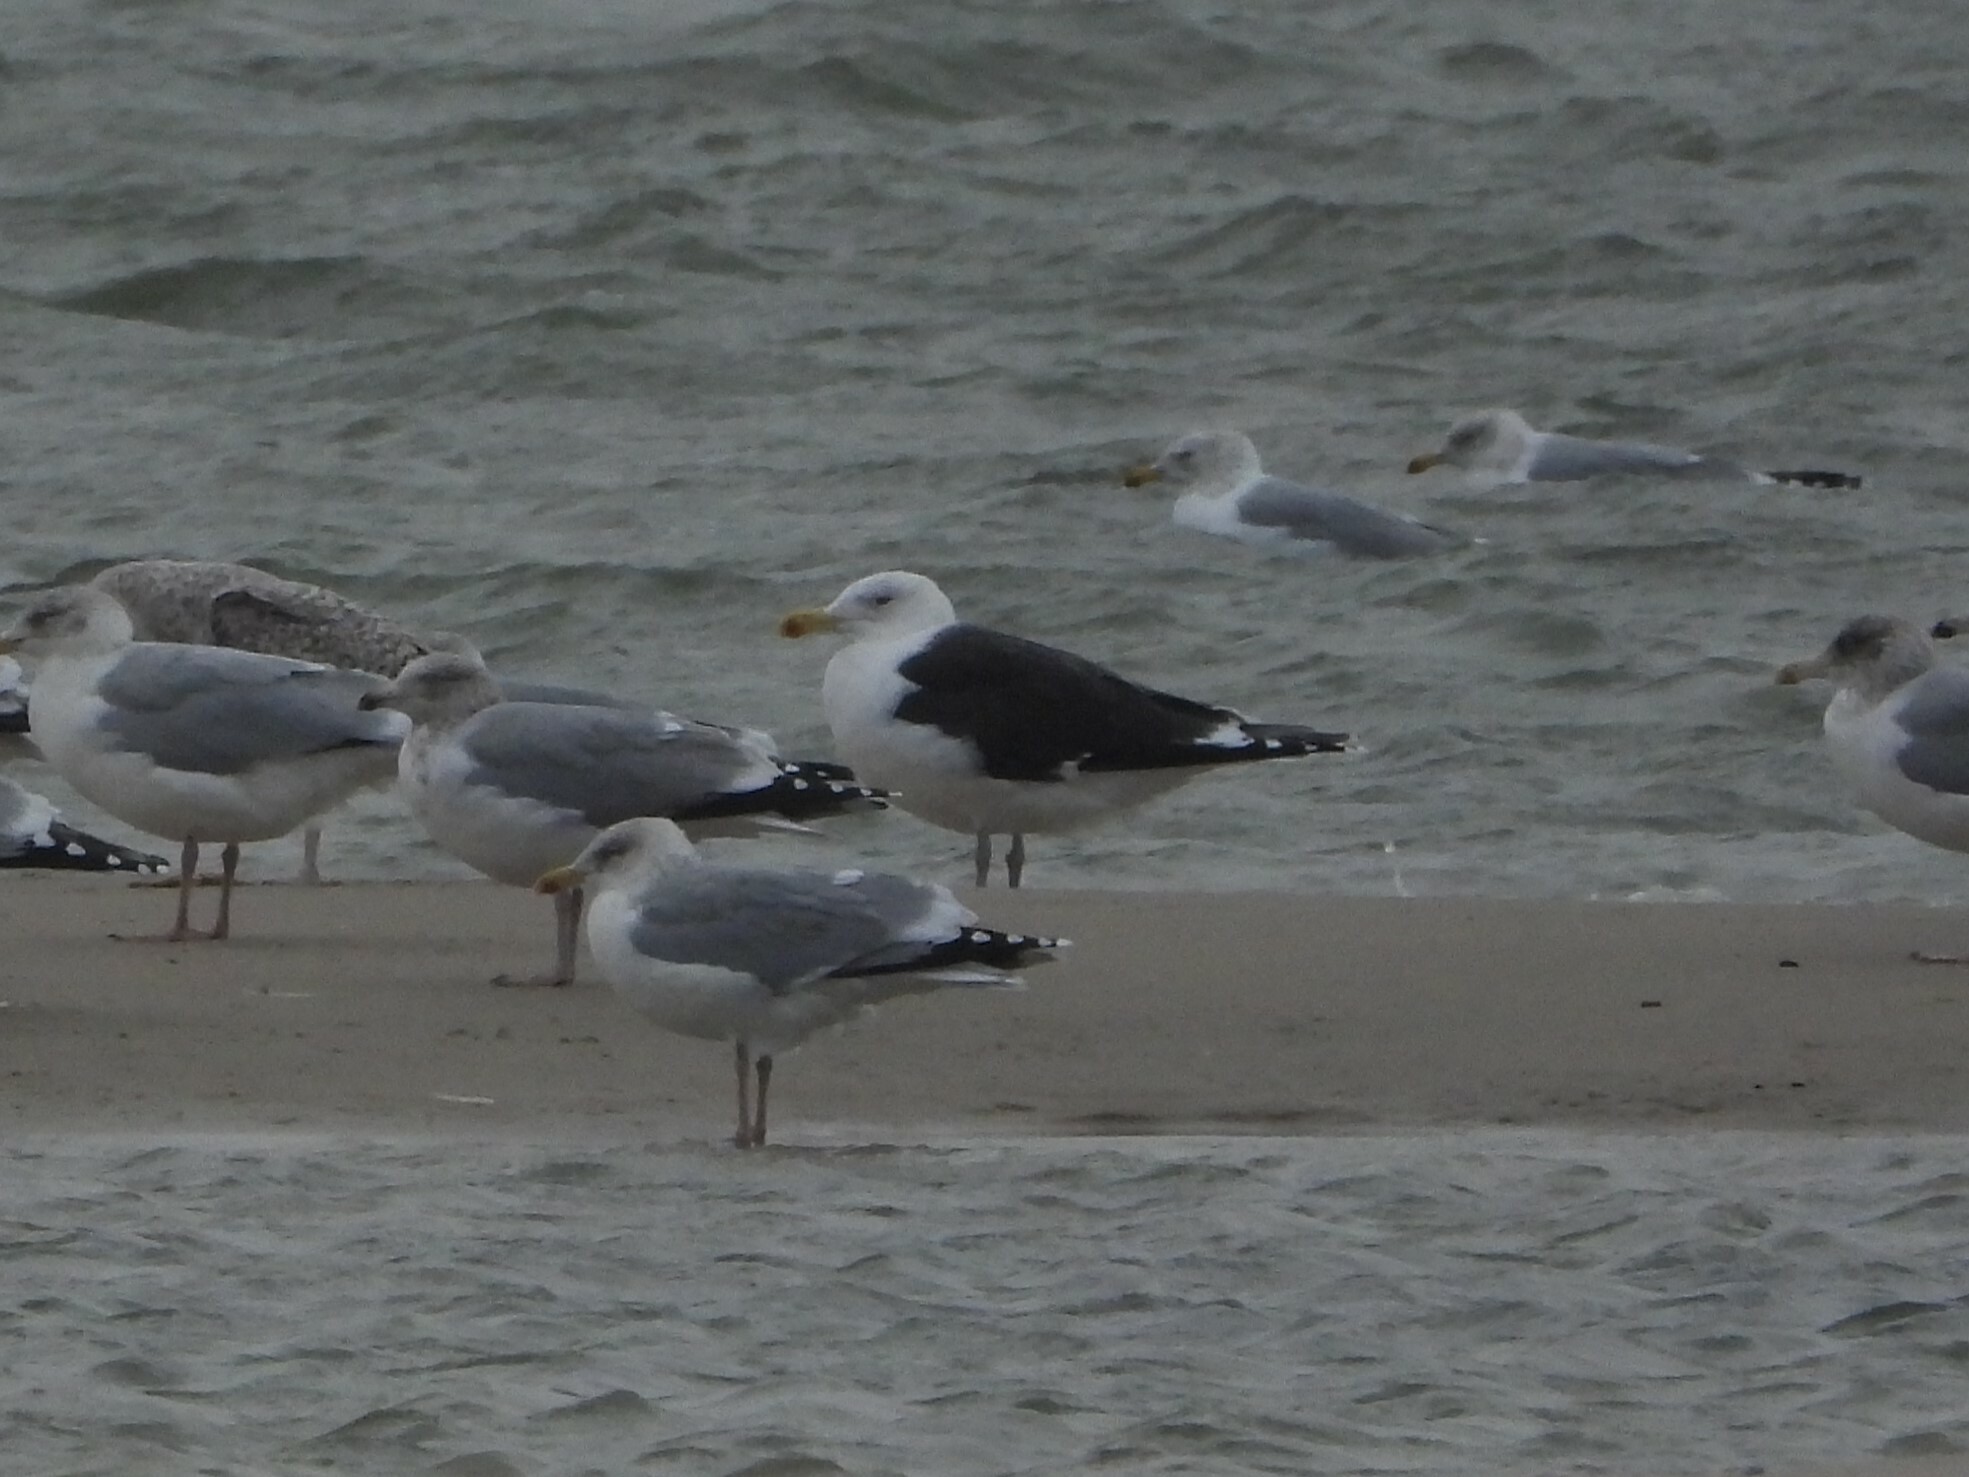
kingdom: Animalia
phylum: Chordata
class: Aves
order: Charadriiformes
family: Laridae
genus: Larus
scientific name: Larus marinus
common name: Great black-backed gull
